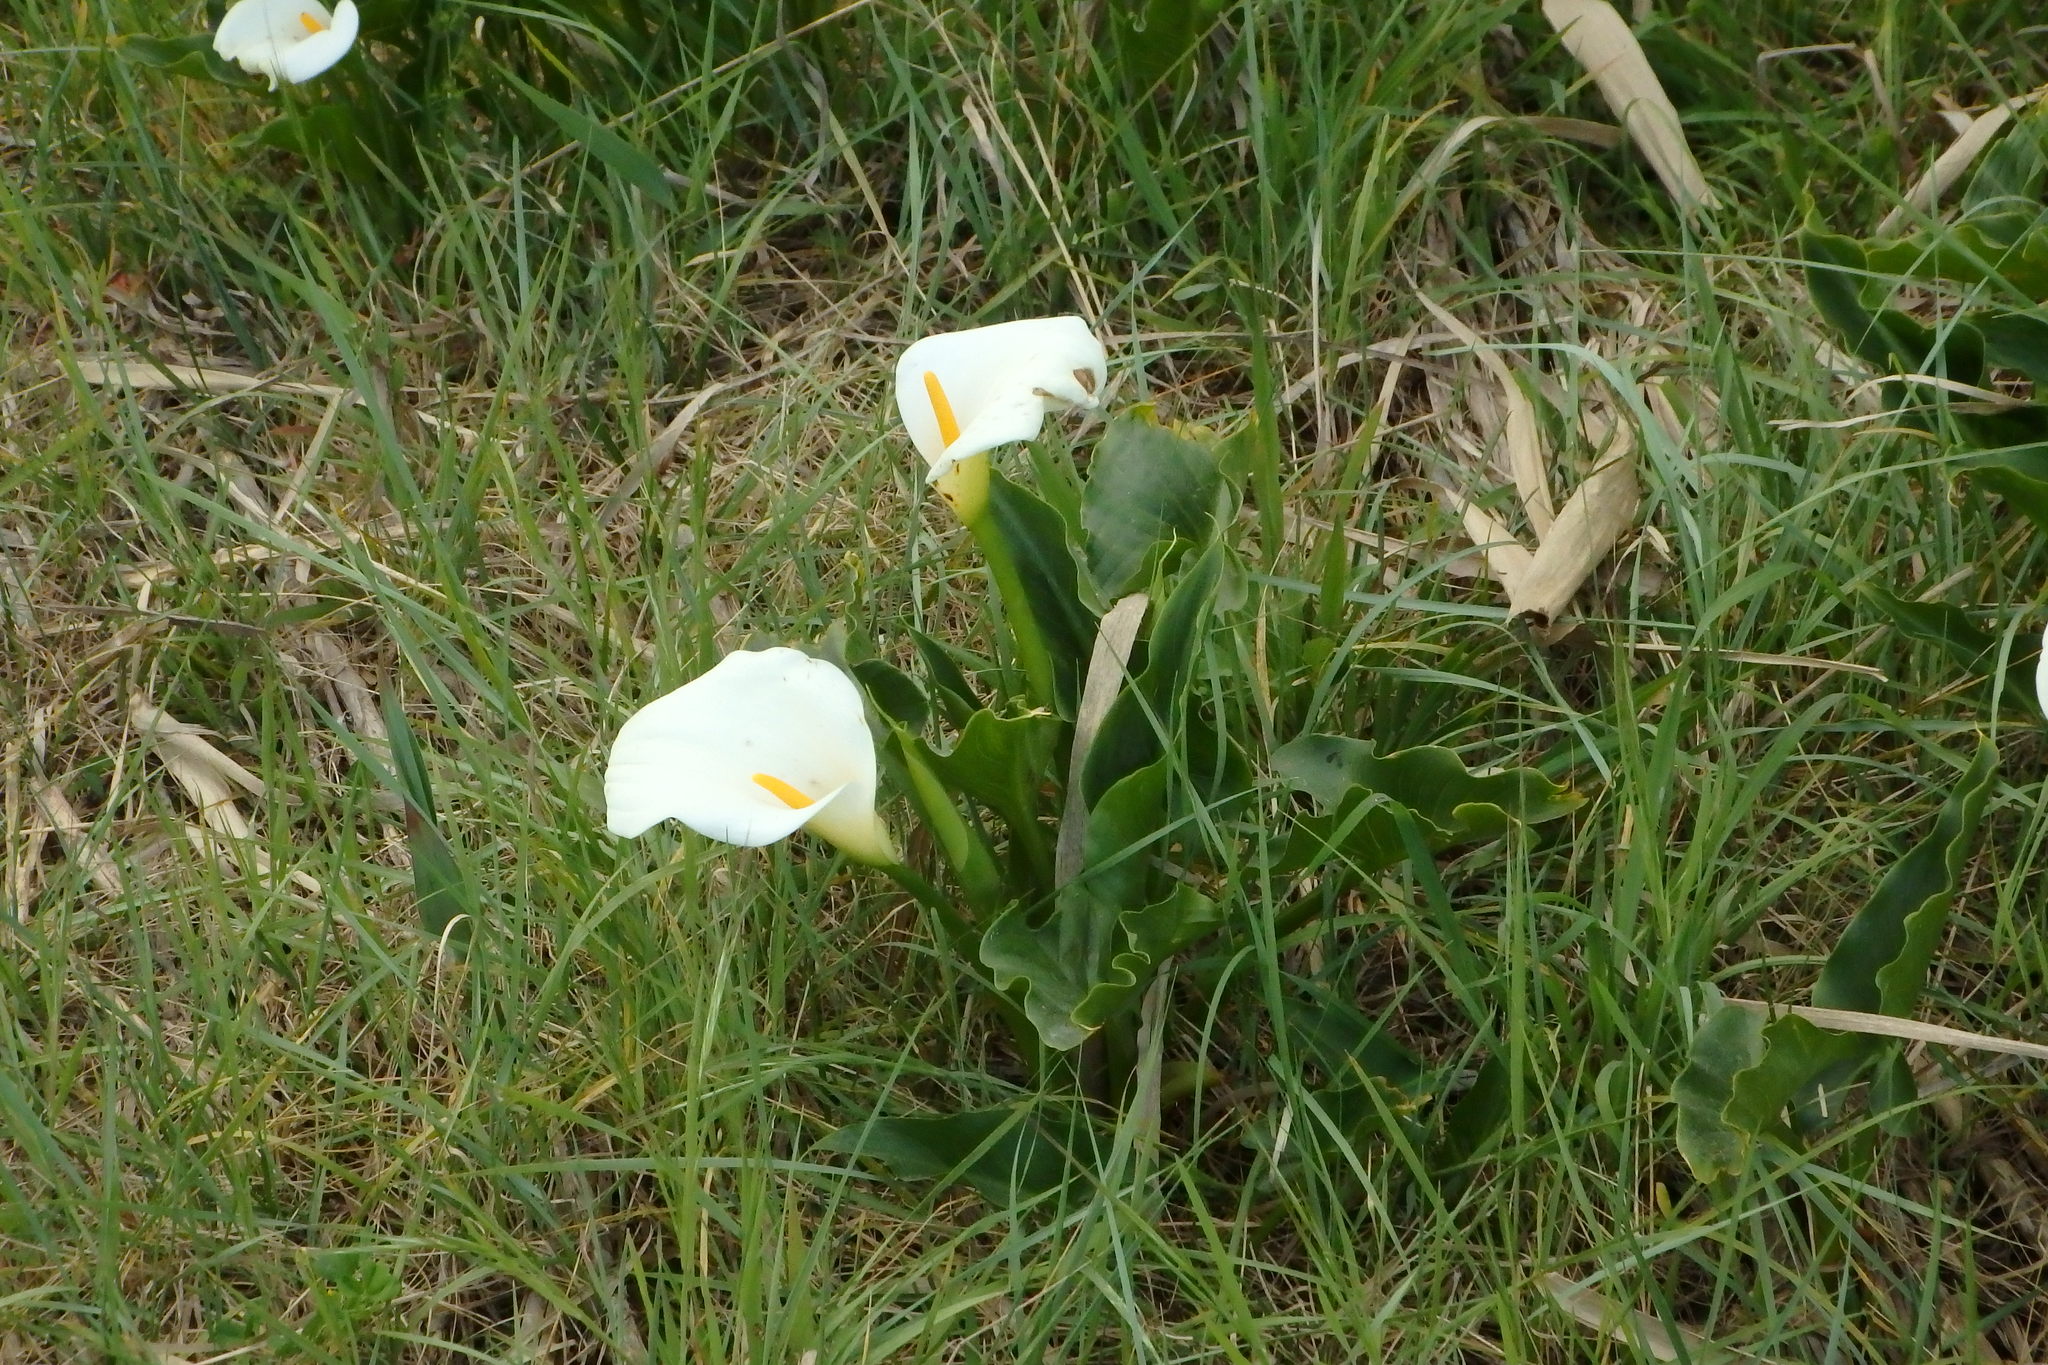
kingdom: Plantae
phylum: Tracheophyta
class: Liliopsida
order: Alismatales
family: Araceae
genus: Zantedeschia
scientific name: Zantedeschia aethiopica
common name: Altar-lily
